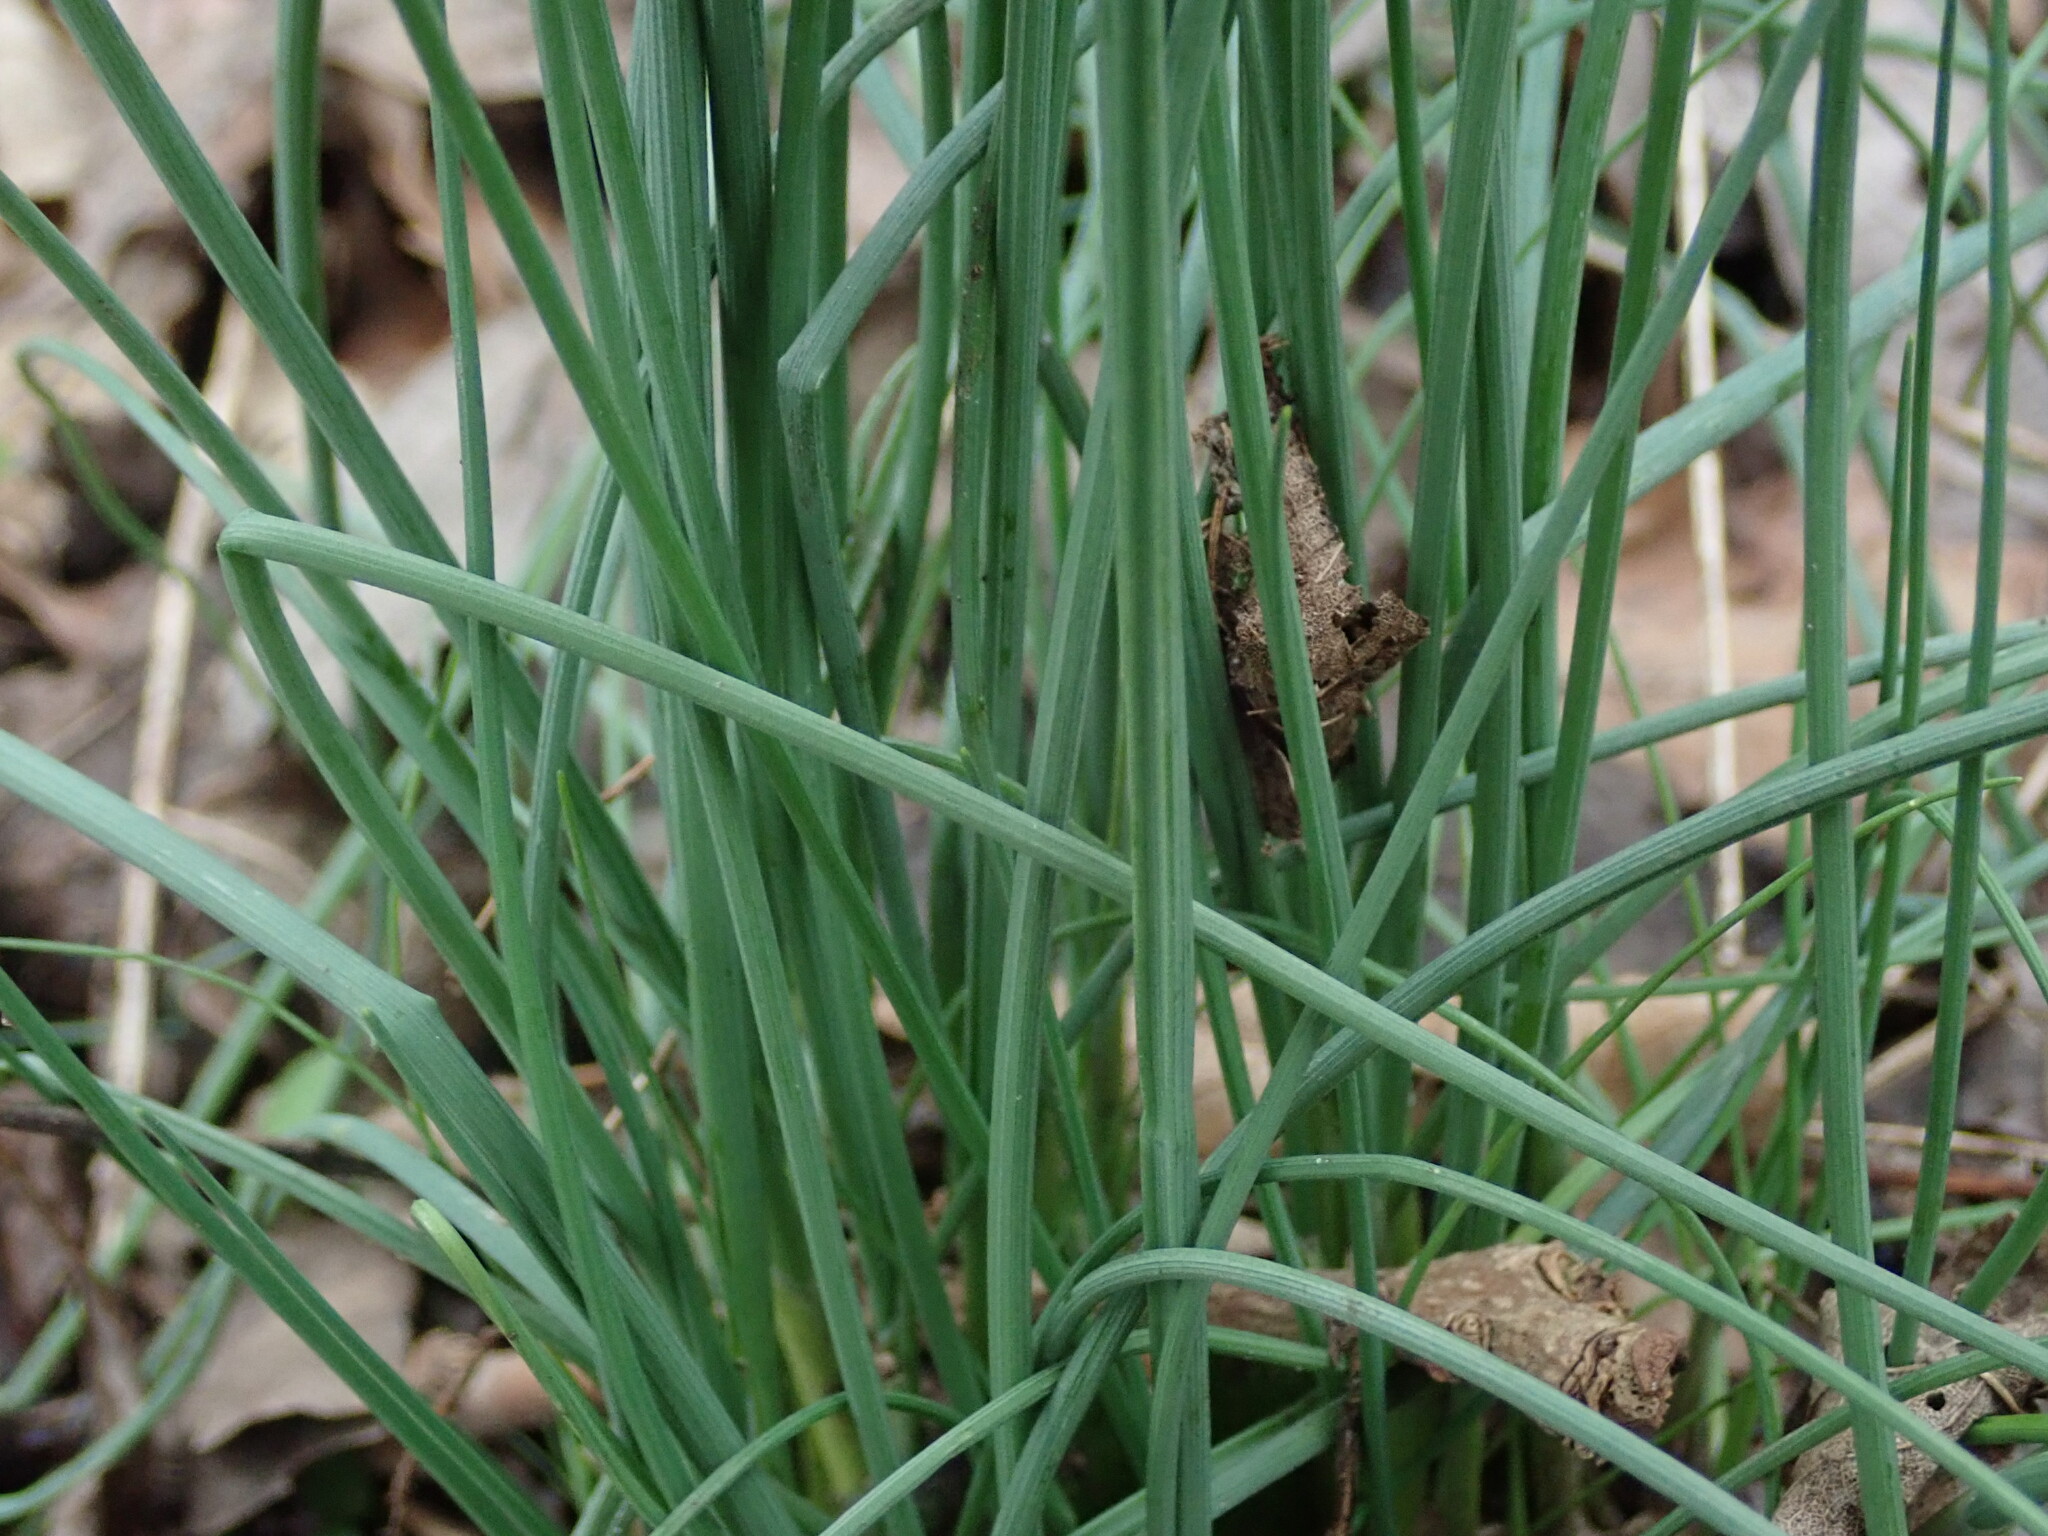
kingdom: Plantae
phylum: Tracheophyta
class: Liliopsida
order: Asparagales
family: Amaryllidaceae
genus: Allium
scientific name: Allium vineale
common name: Crow garlic
